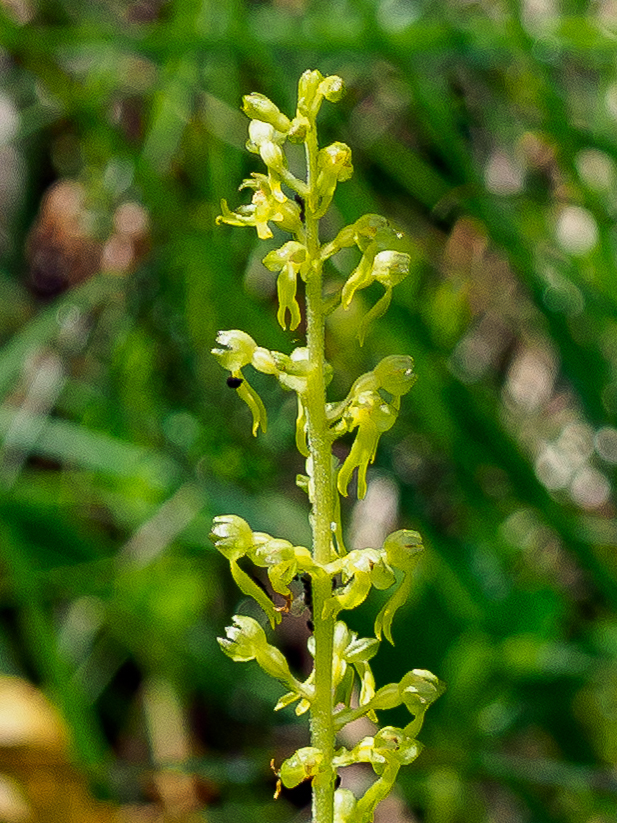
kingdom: Plantae
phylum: Tracheophyta
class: Liliopsida
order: Asparagales
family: Orchidaceae
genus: Neottia
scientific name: Neottia ovata
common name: Common twayblade
